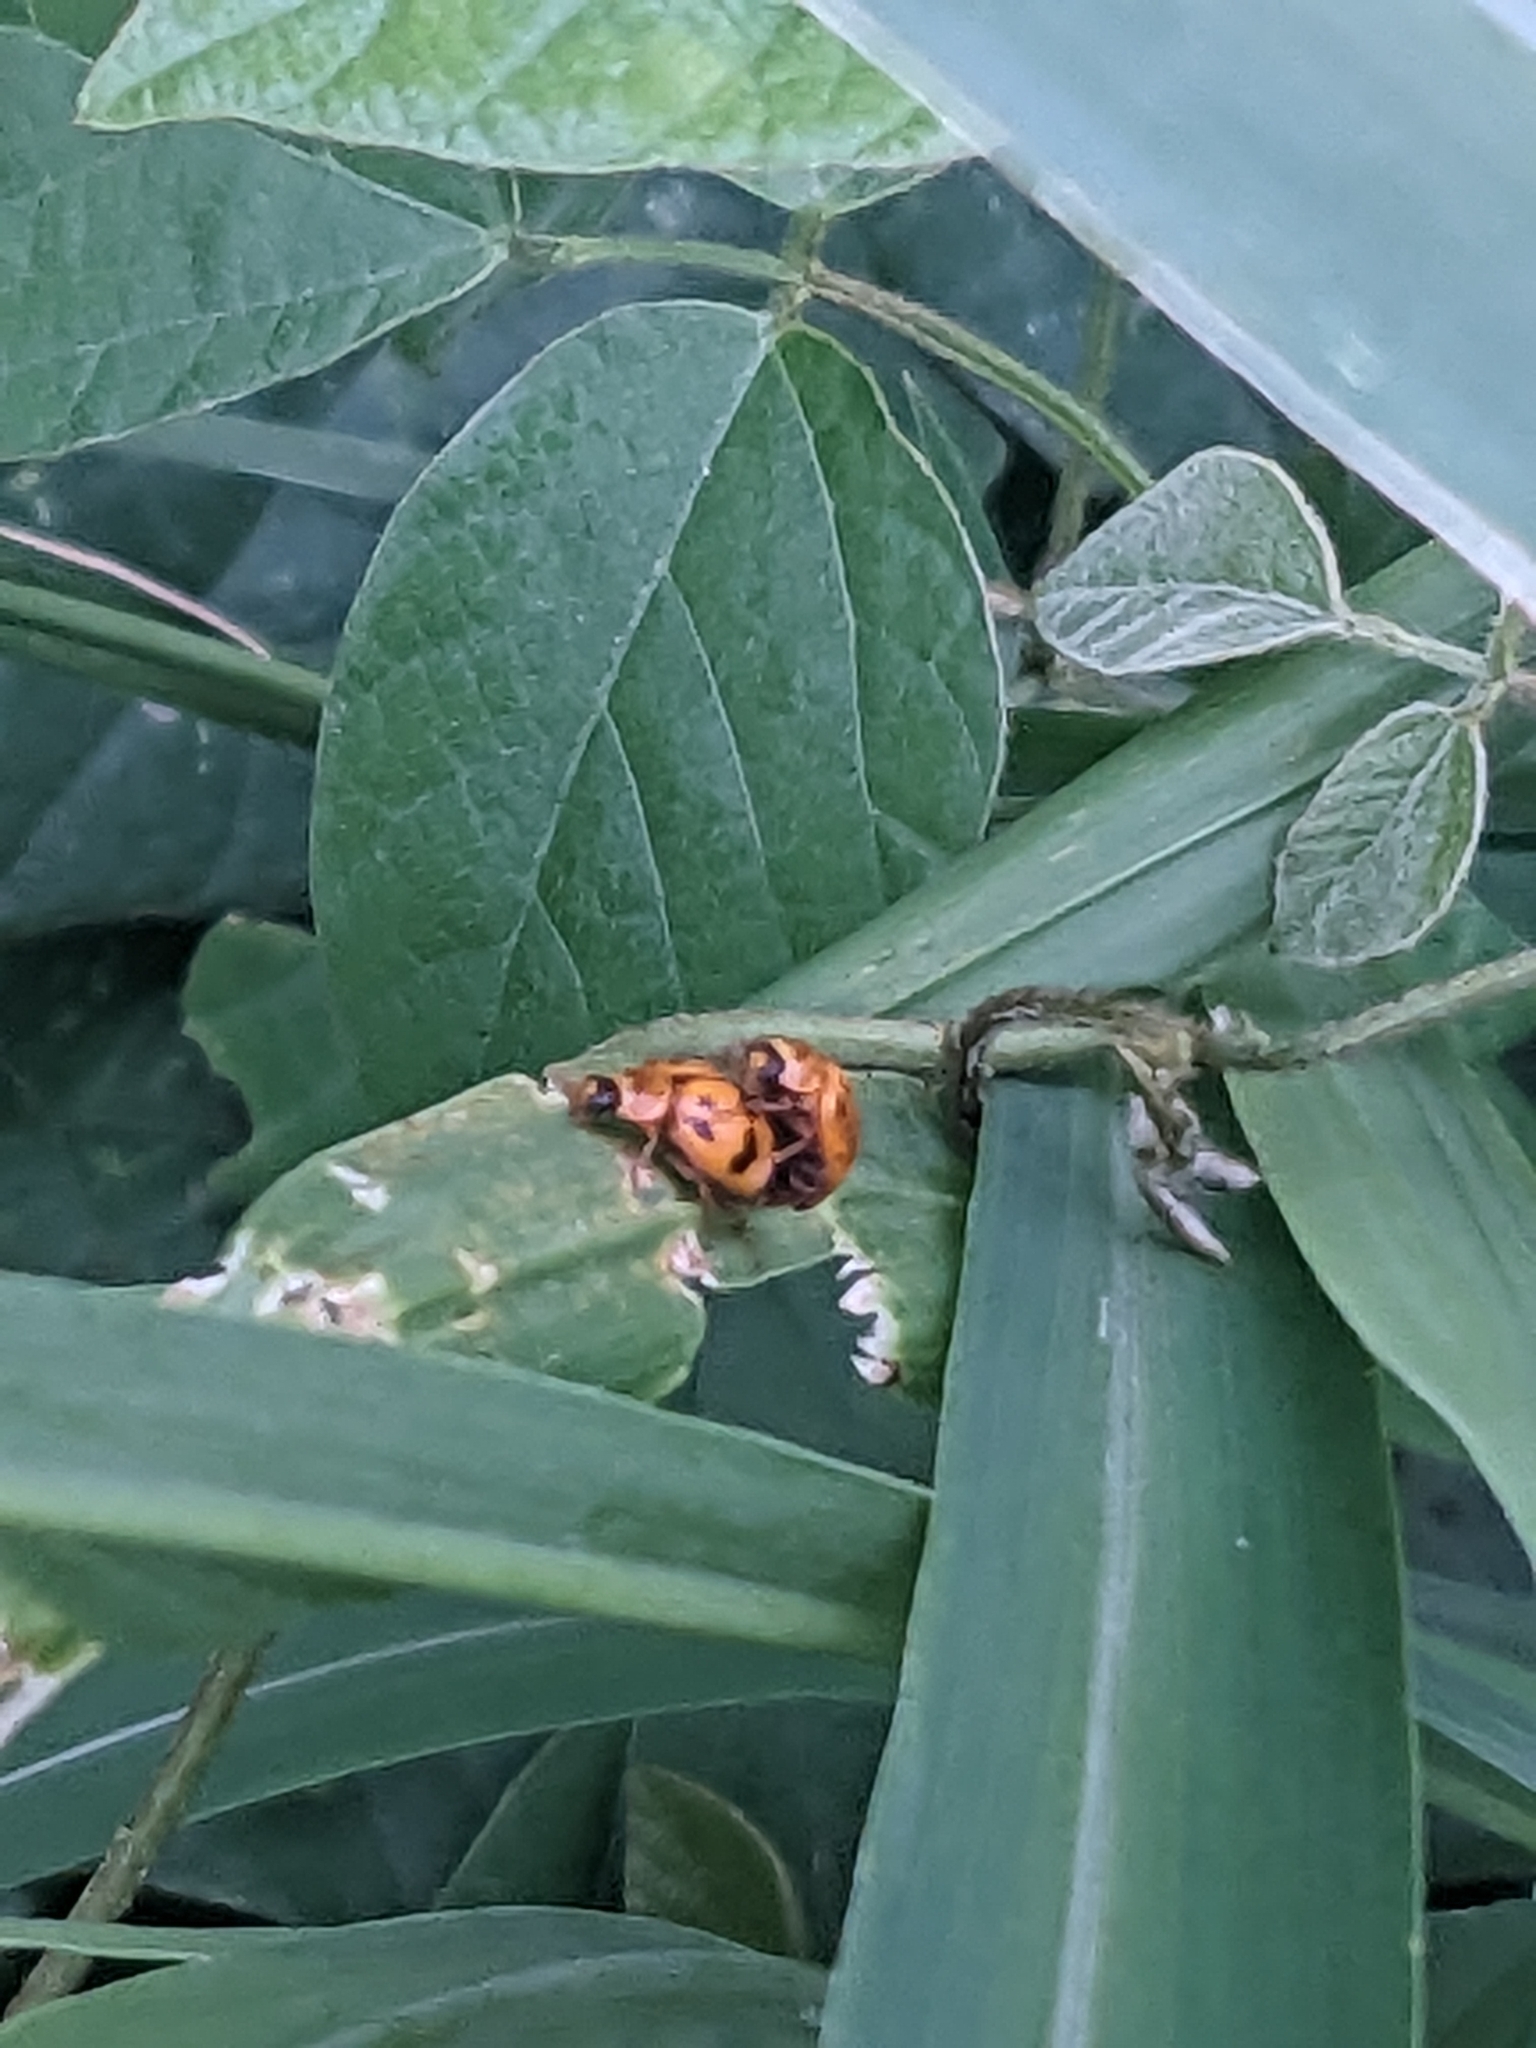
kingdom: Animalia
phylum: Arthropoda
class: Insecta
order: Coleoptera
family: Coccinellidae
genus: Harmonia
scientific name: Harmonia octomaculata
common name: Lady beetle
